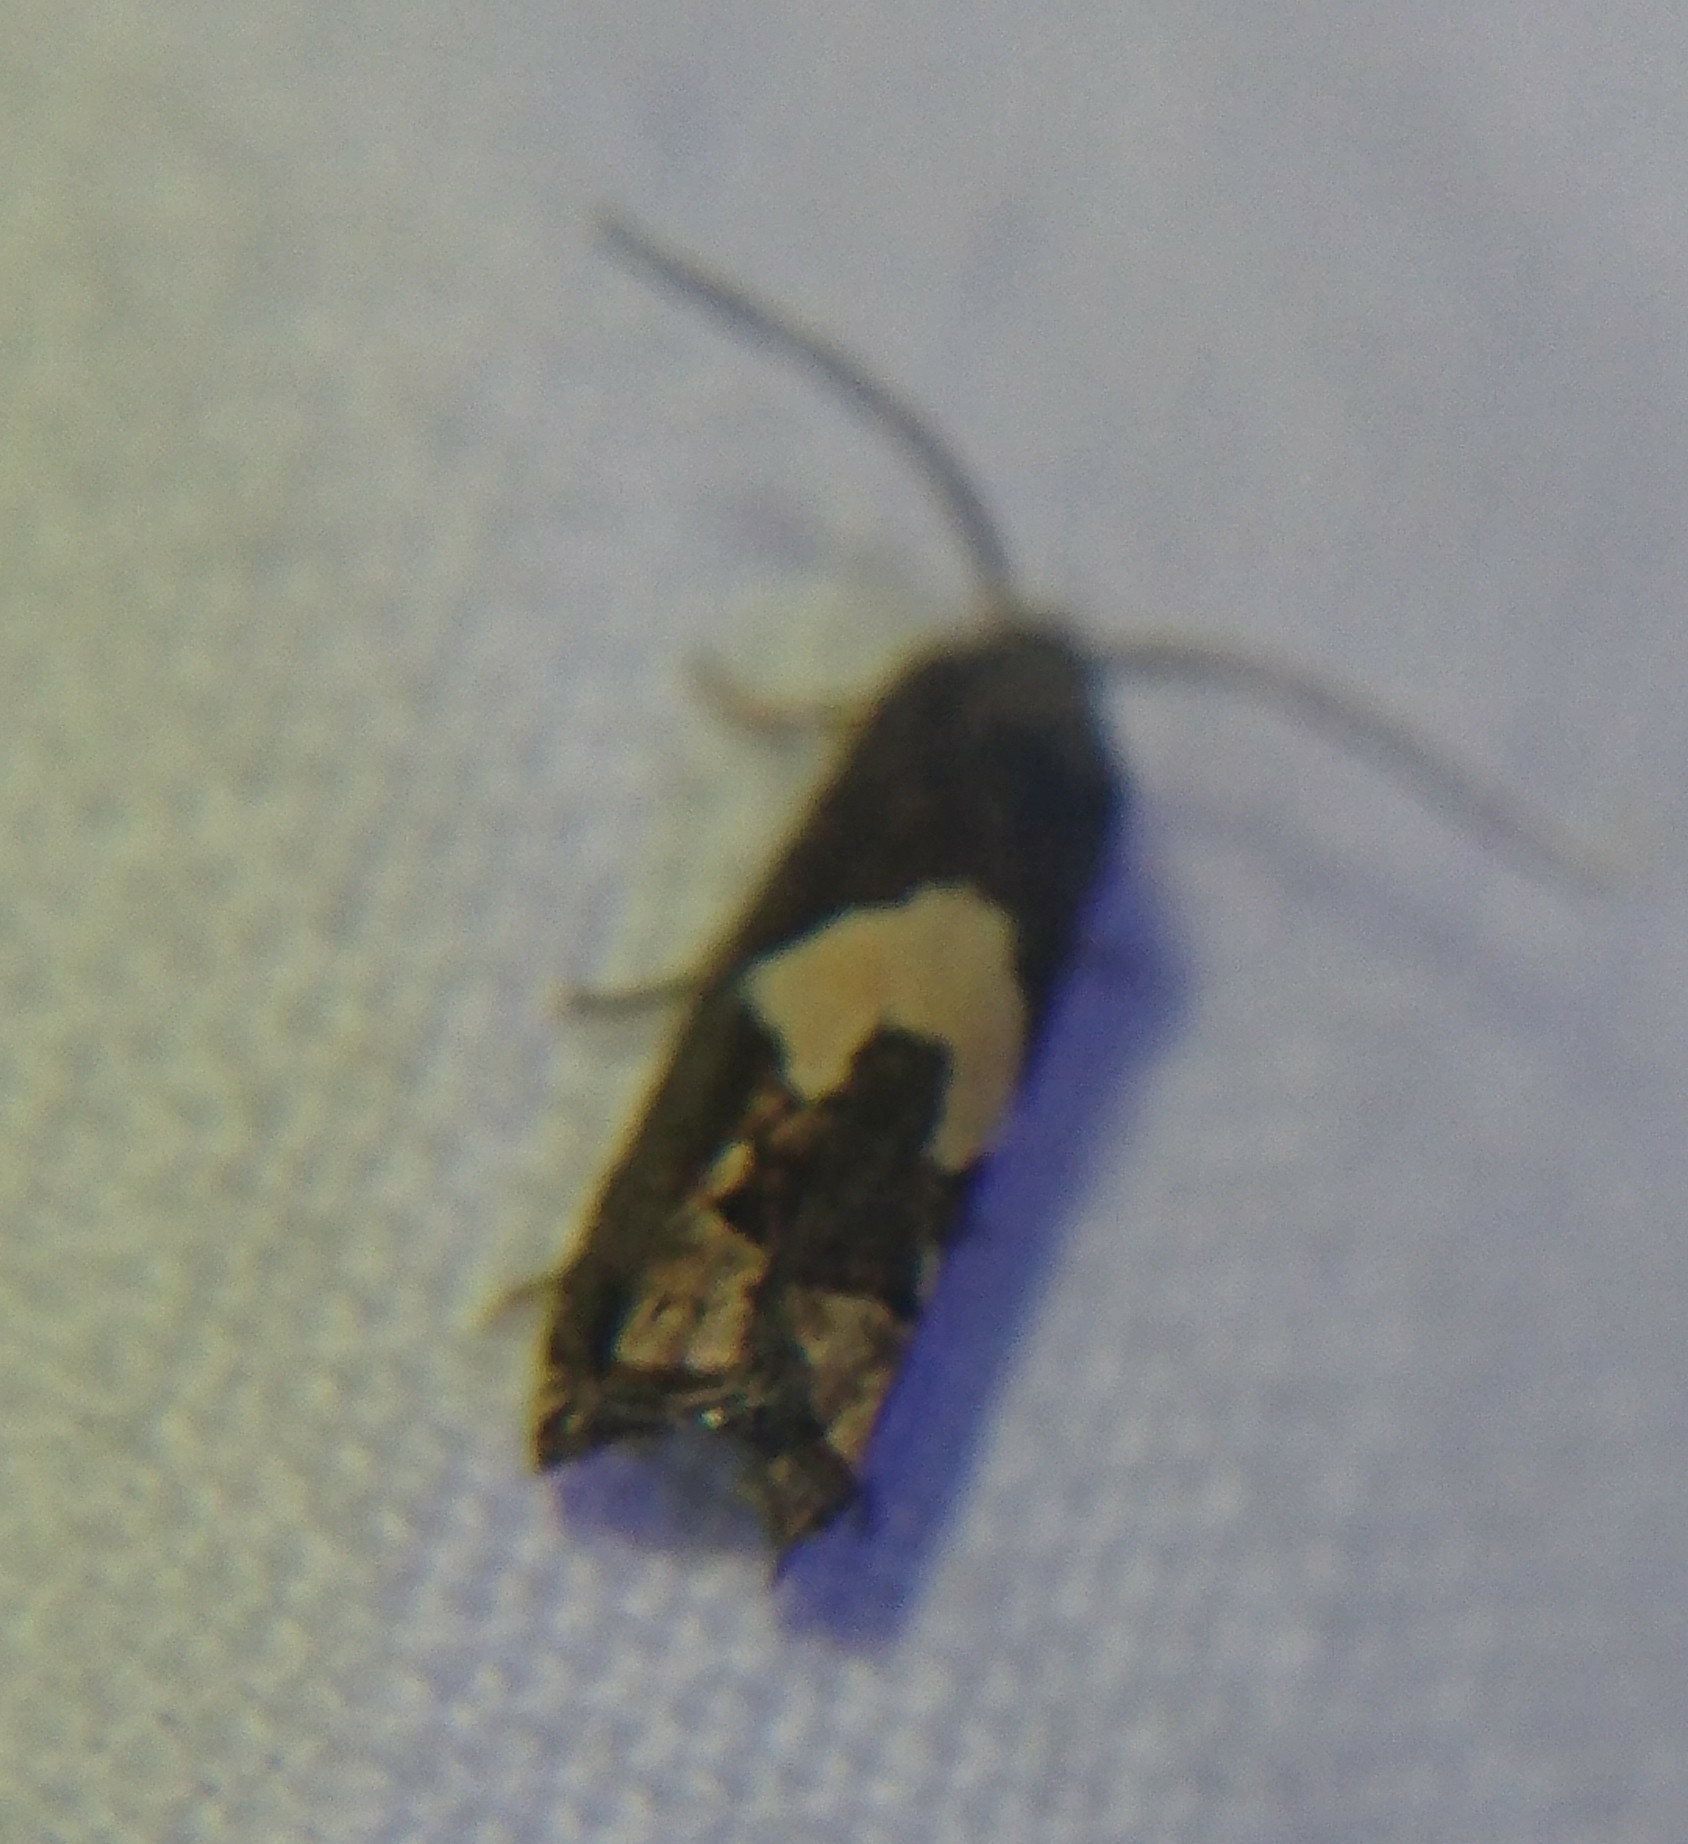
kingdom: Animalia
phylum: Arthropoda
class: Insecta
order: Lepidoptera
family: Tortricidae
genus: Epiblema
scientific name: Epiblema otiosana
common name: Bidens borer moth
